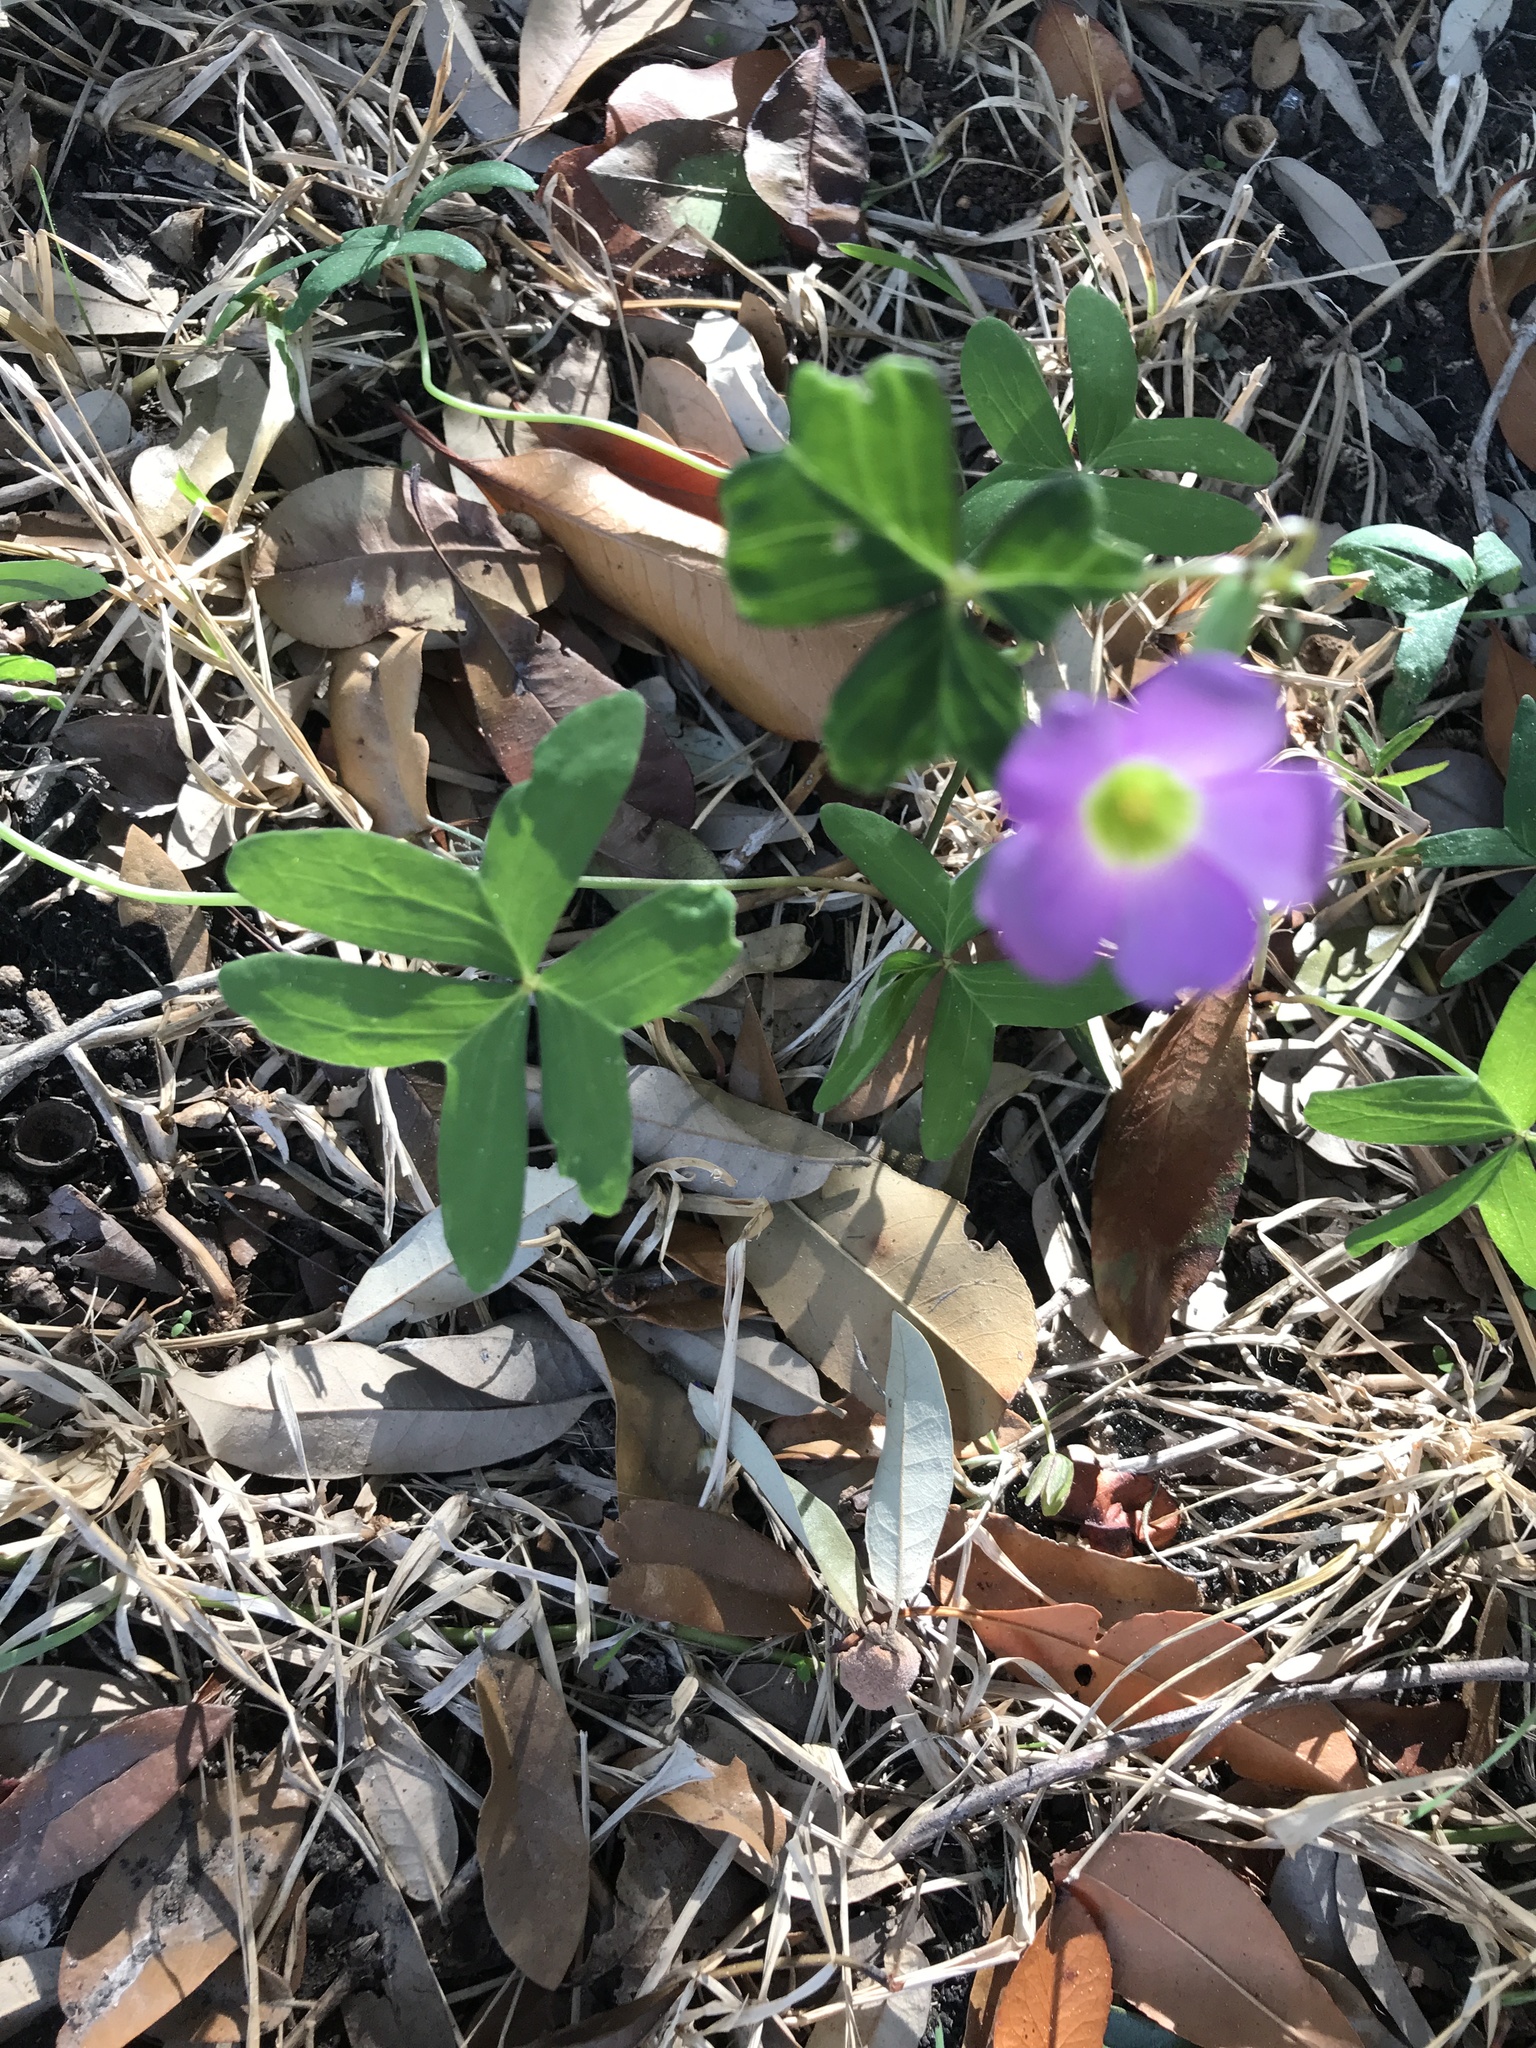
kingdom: Plantae
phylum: Tracheophyta
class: Magnoliopsida
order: Oxalidales
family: Oxalidaceae
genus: Oxalis
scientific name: Oxalis drummondii
